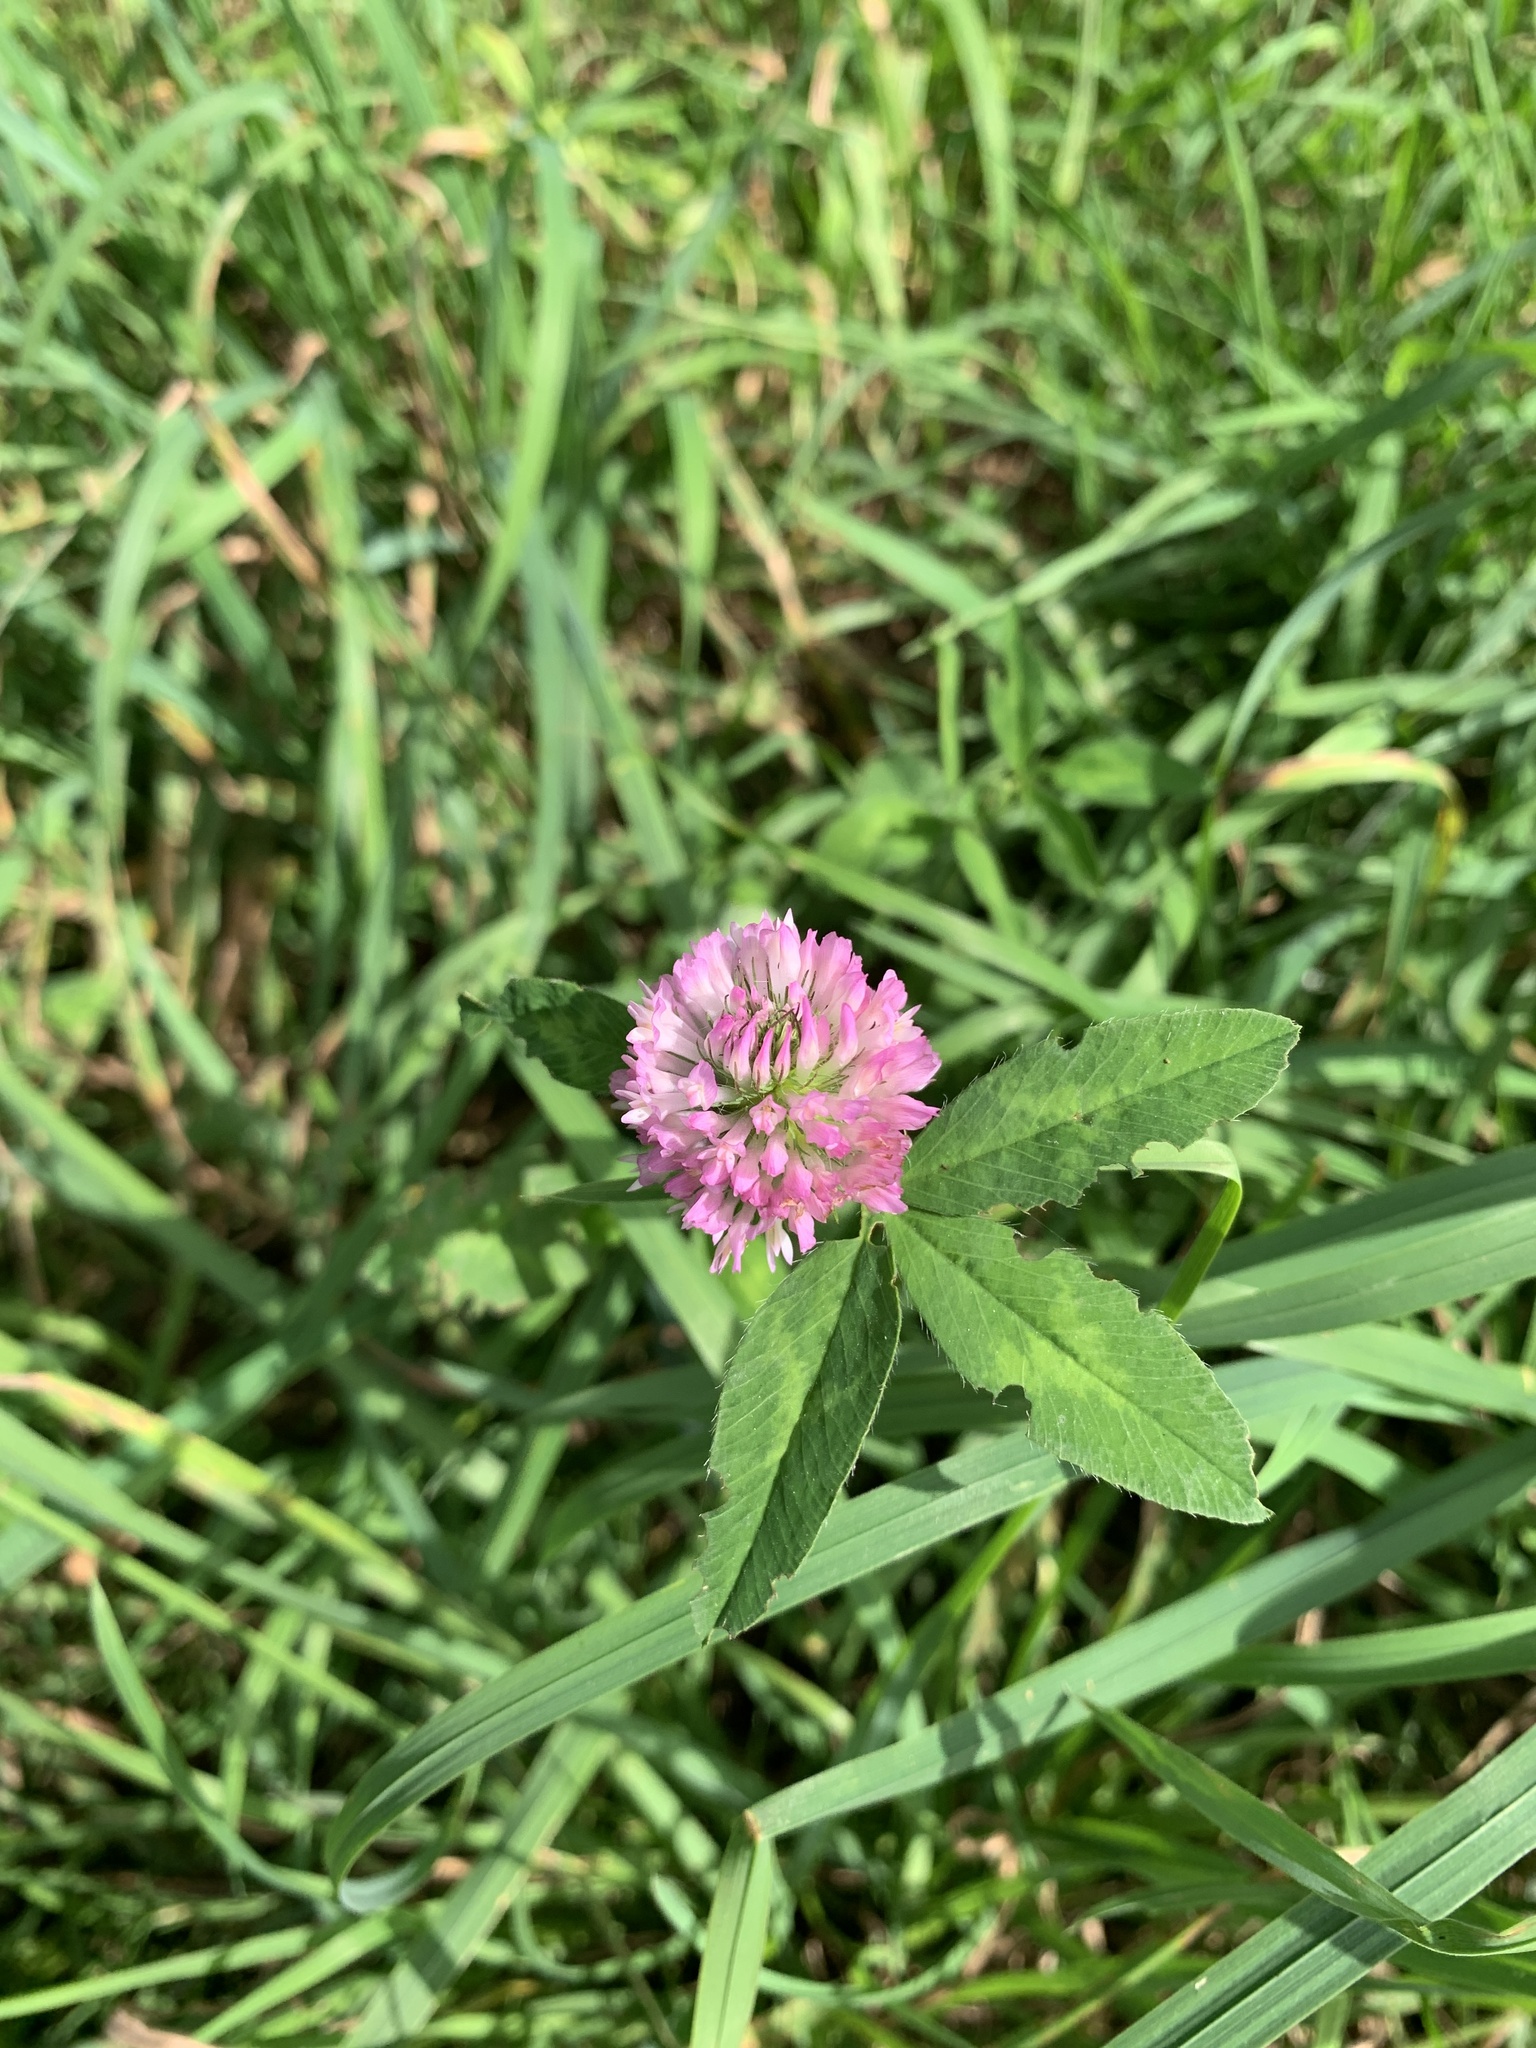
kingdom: Plantae
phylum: Tracheophyta
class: Magnoliopsida
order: Fabales
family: Fabaceae
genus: Trifolium
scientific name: Trifolium pratense
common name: Red clover
